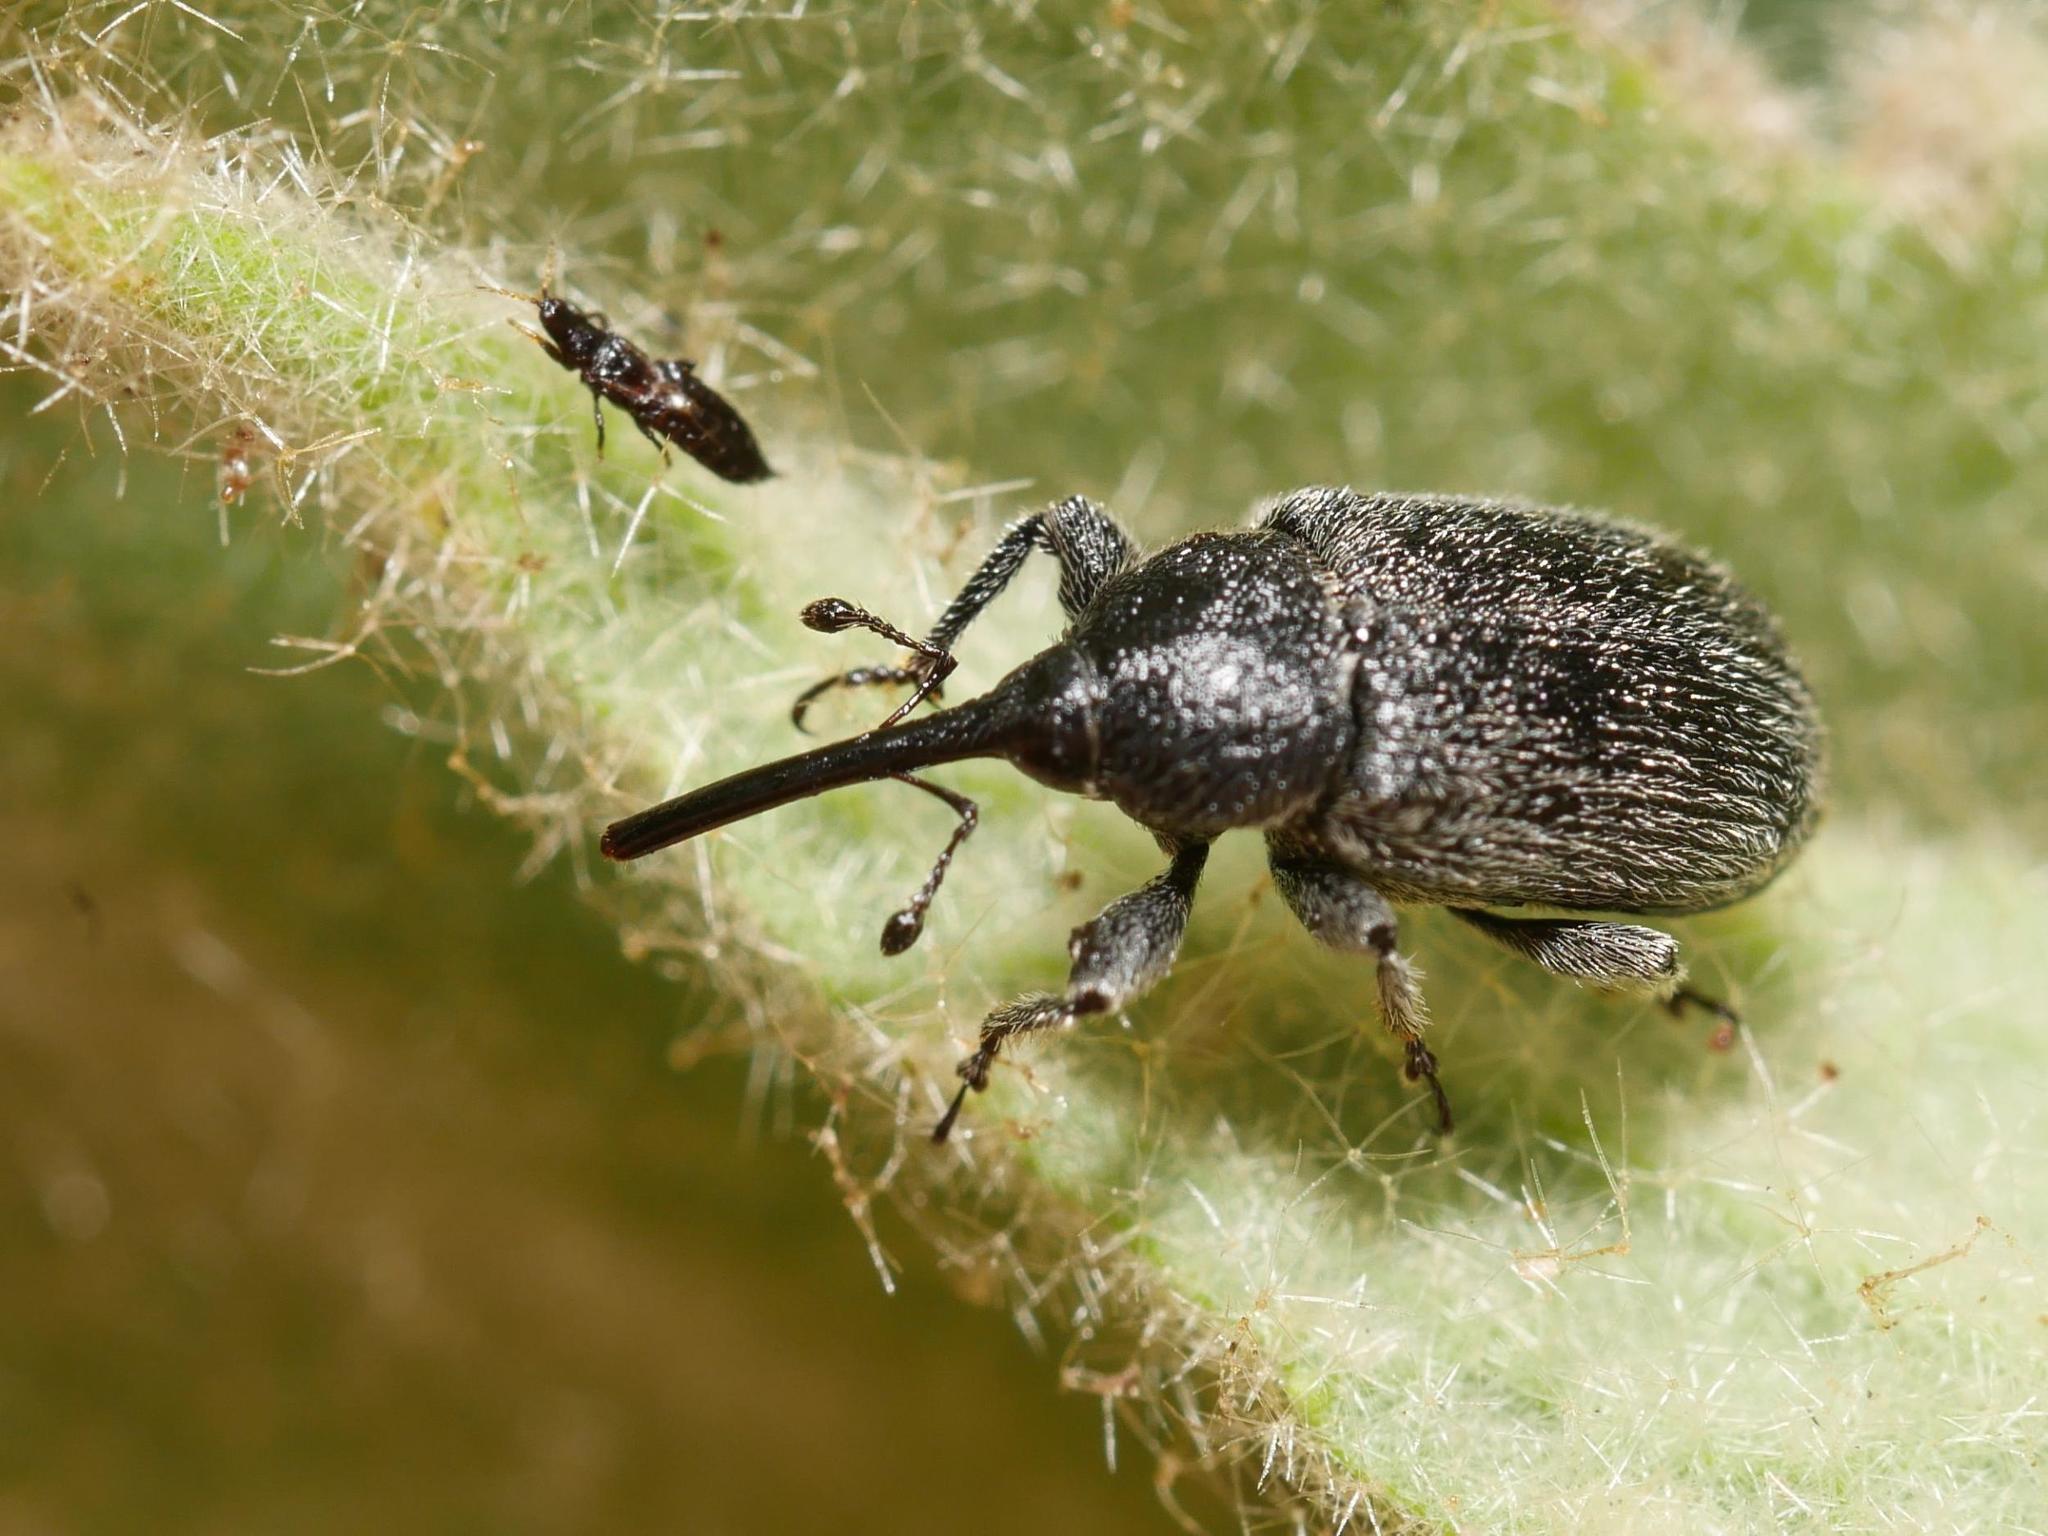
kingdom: Animalia
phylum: Arthropoda
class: Insecta
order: Coleoptera
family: Curculionidae
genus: Rhinusa
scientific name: Rhinusa asellus
